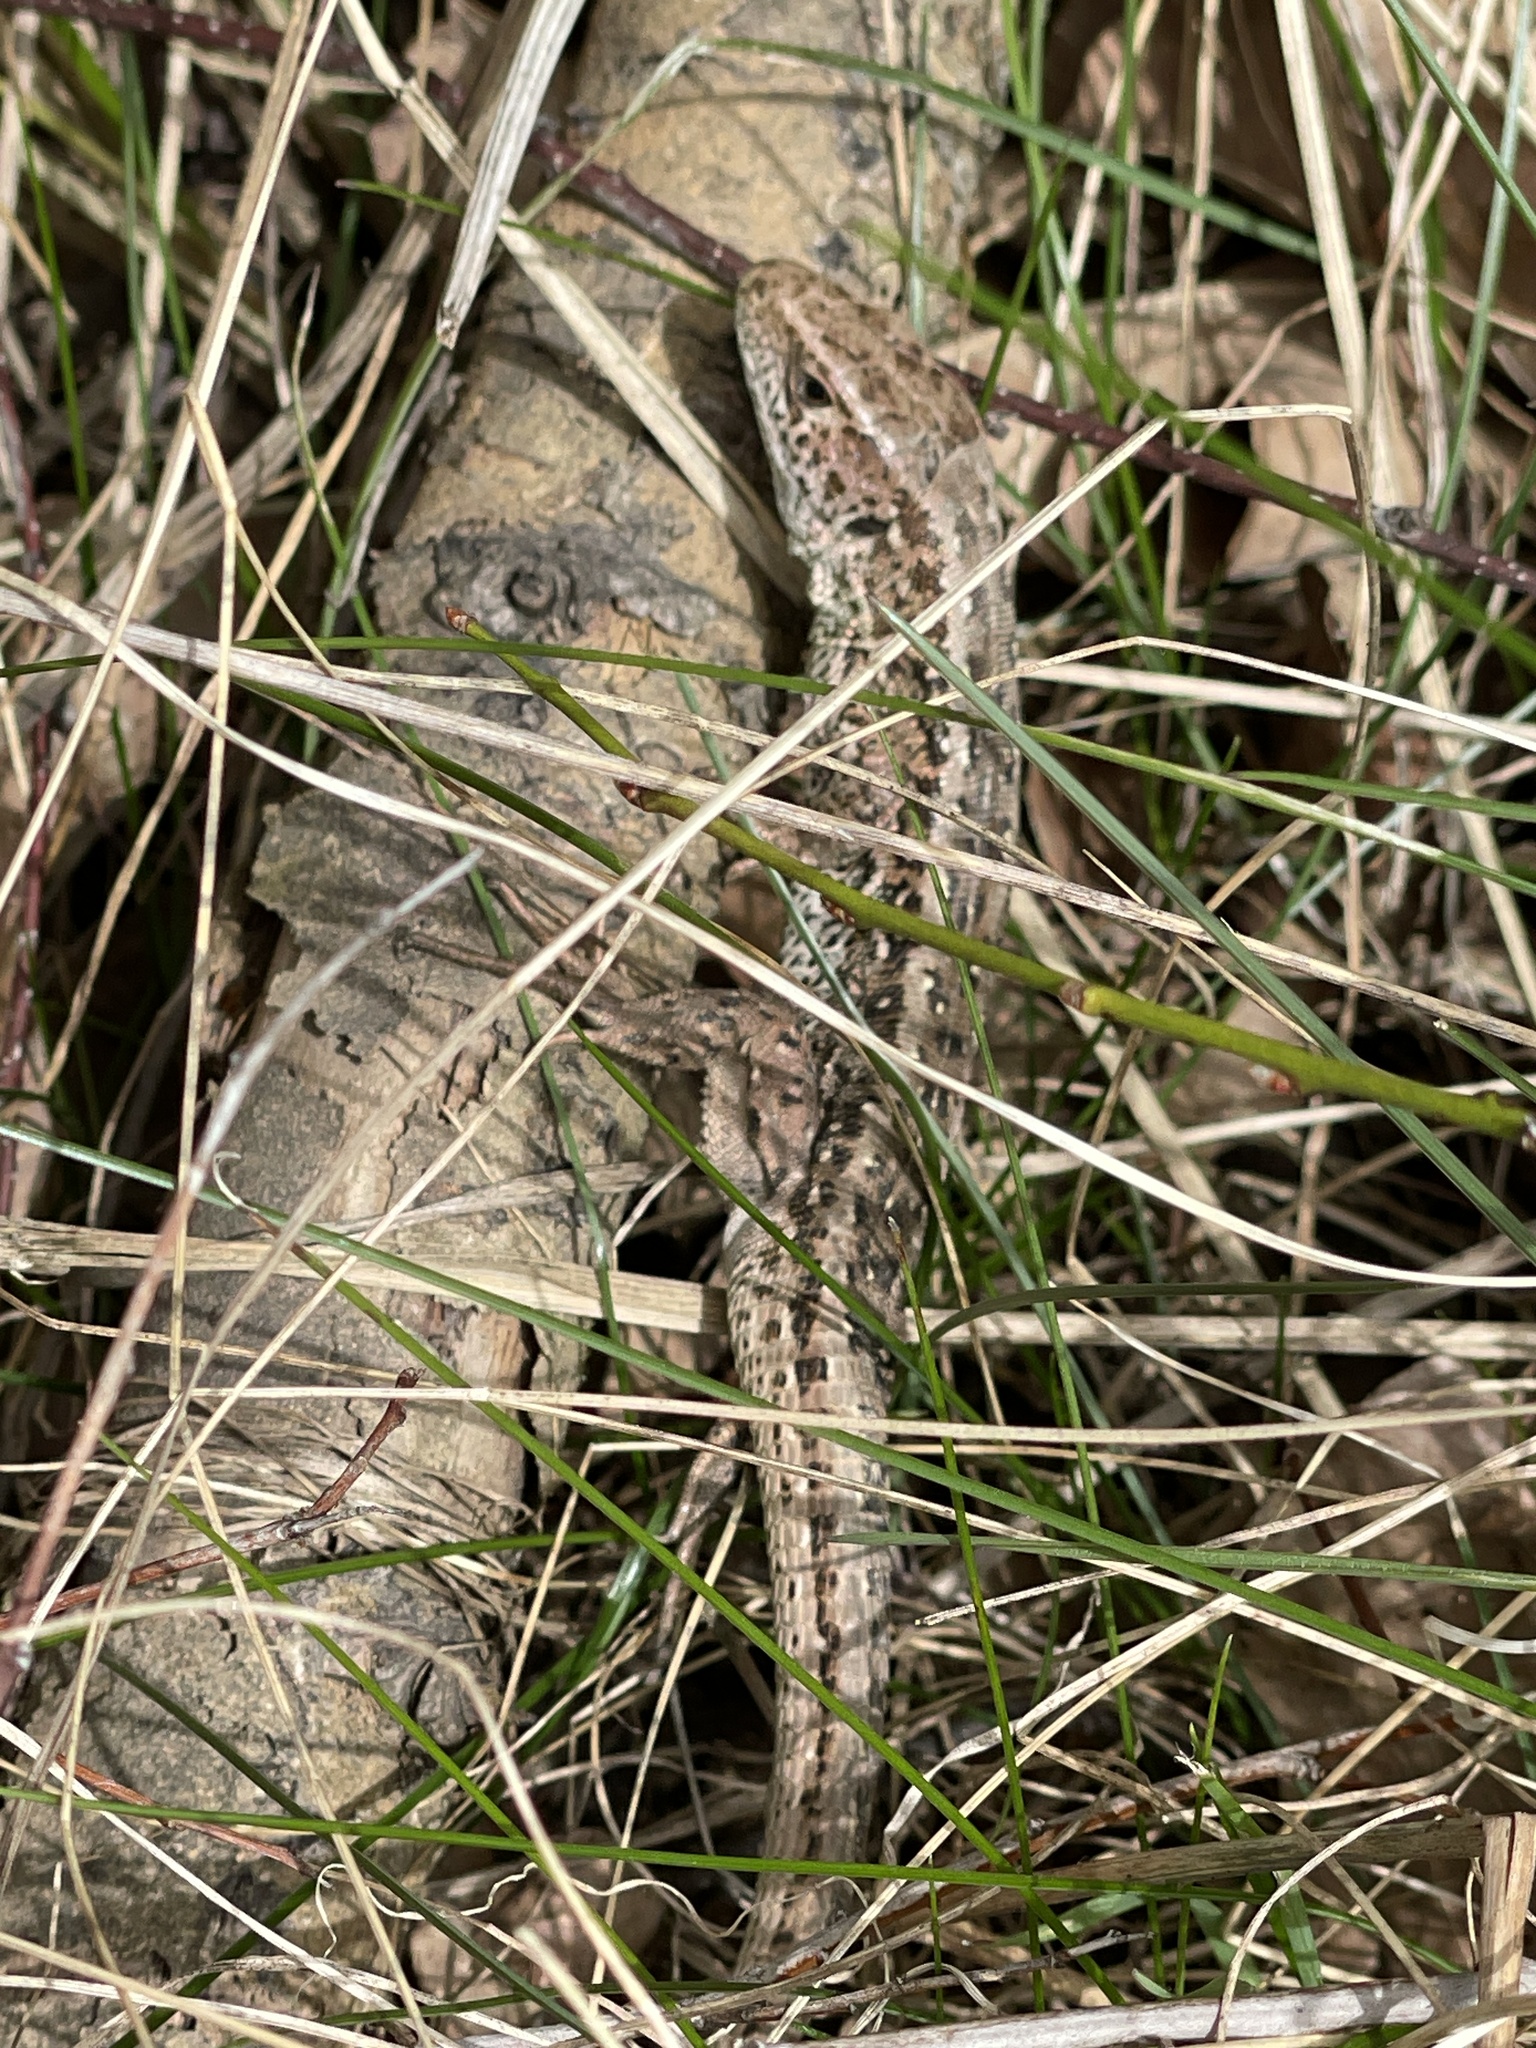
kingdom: Animalia
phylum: Chordata
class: Squamata
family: Lacertidae
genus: Lacerta
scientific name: Lacerta agilis
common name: Sand lizard
